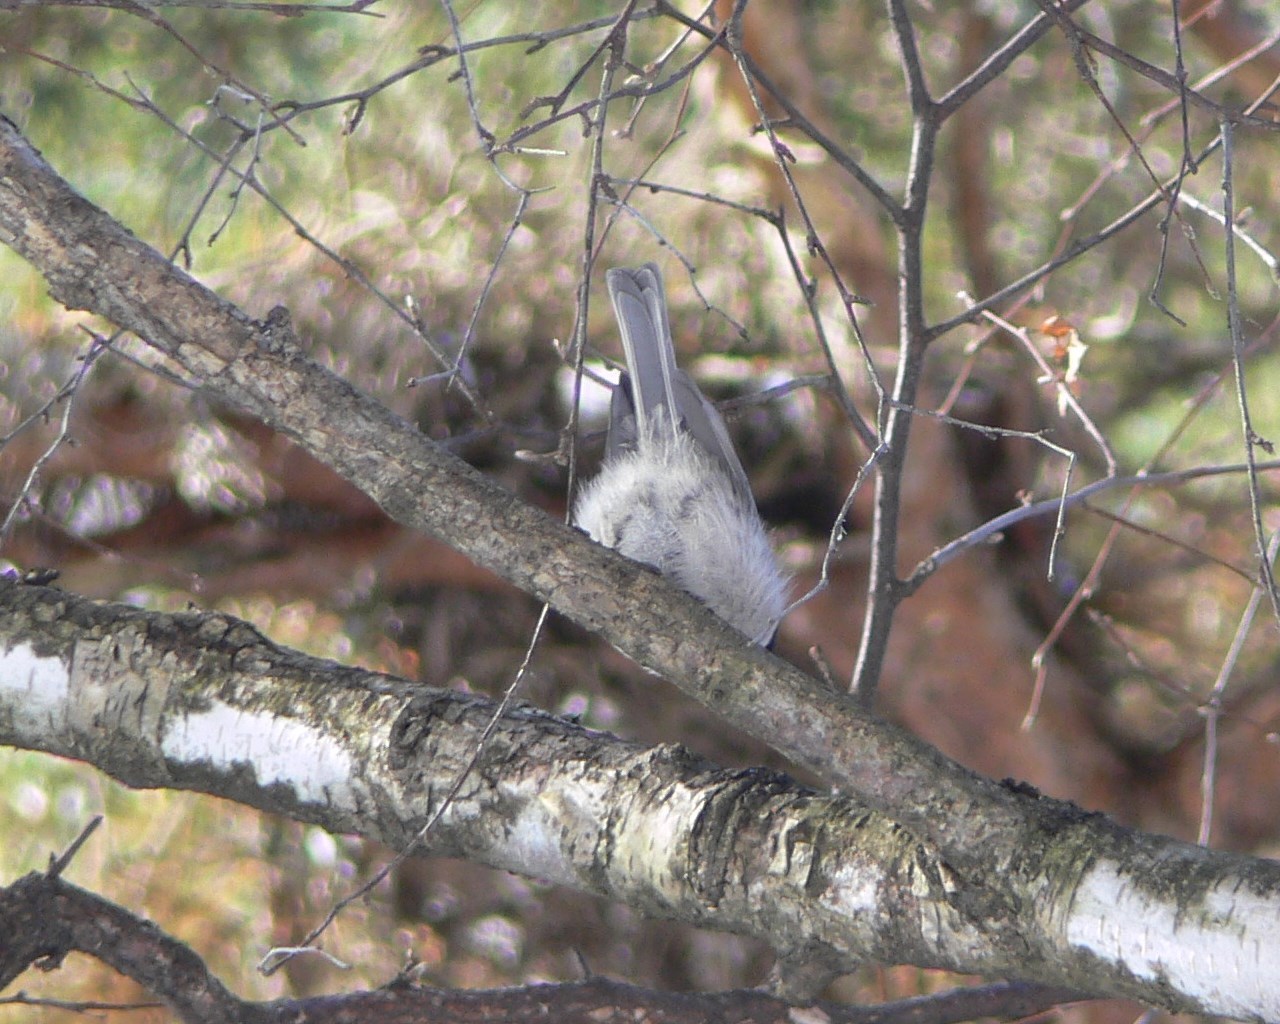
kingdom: Animalia
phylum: Chordata
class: Aves
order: Passeriformes
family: Paridae
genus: Poecile
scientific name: Poecile montanus
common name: Willow tit
